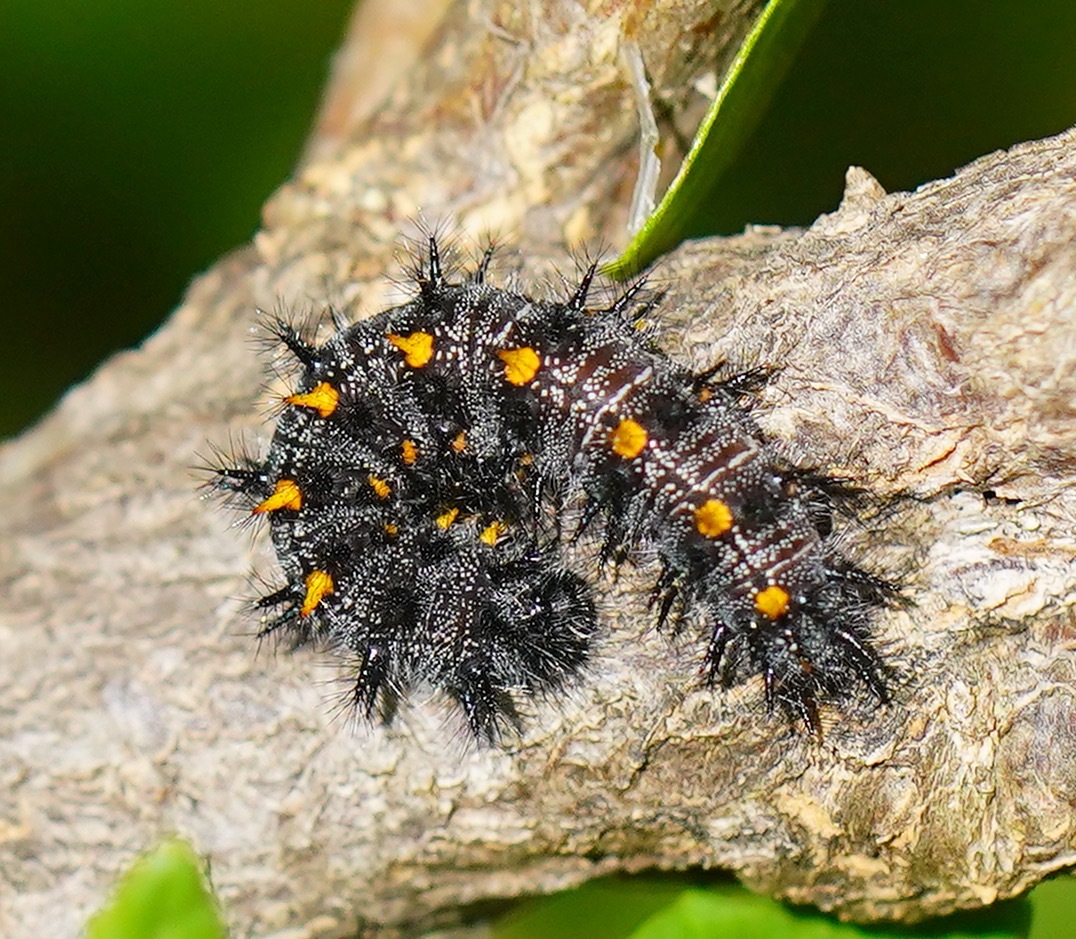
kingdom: Animalia
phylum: Arthropoda
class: Insecta
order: Lepidoptera
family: Nymphalidae
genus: Occidryas
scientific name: Occidryas chalcedona
